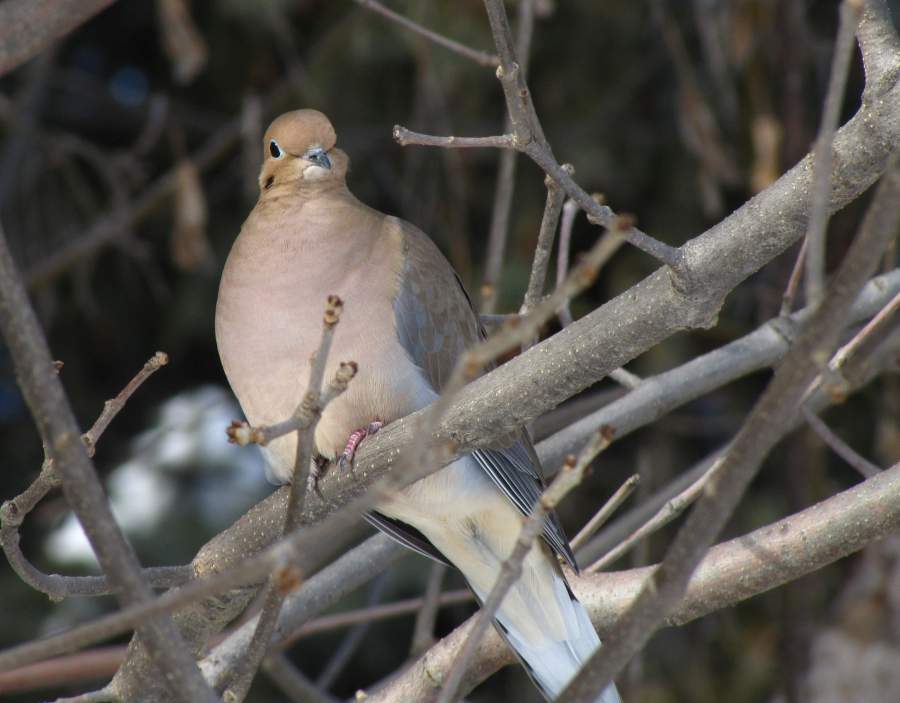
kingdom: Animalia
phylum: Chordata
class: Aves
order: Columbiformes
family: Columbidae
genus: Zenaida
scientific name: Zenaida macroura
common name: Mourning dove
